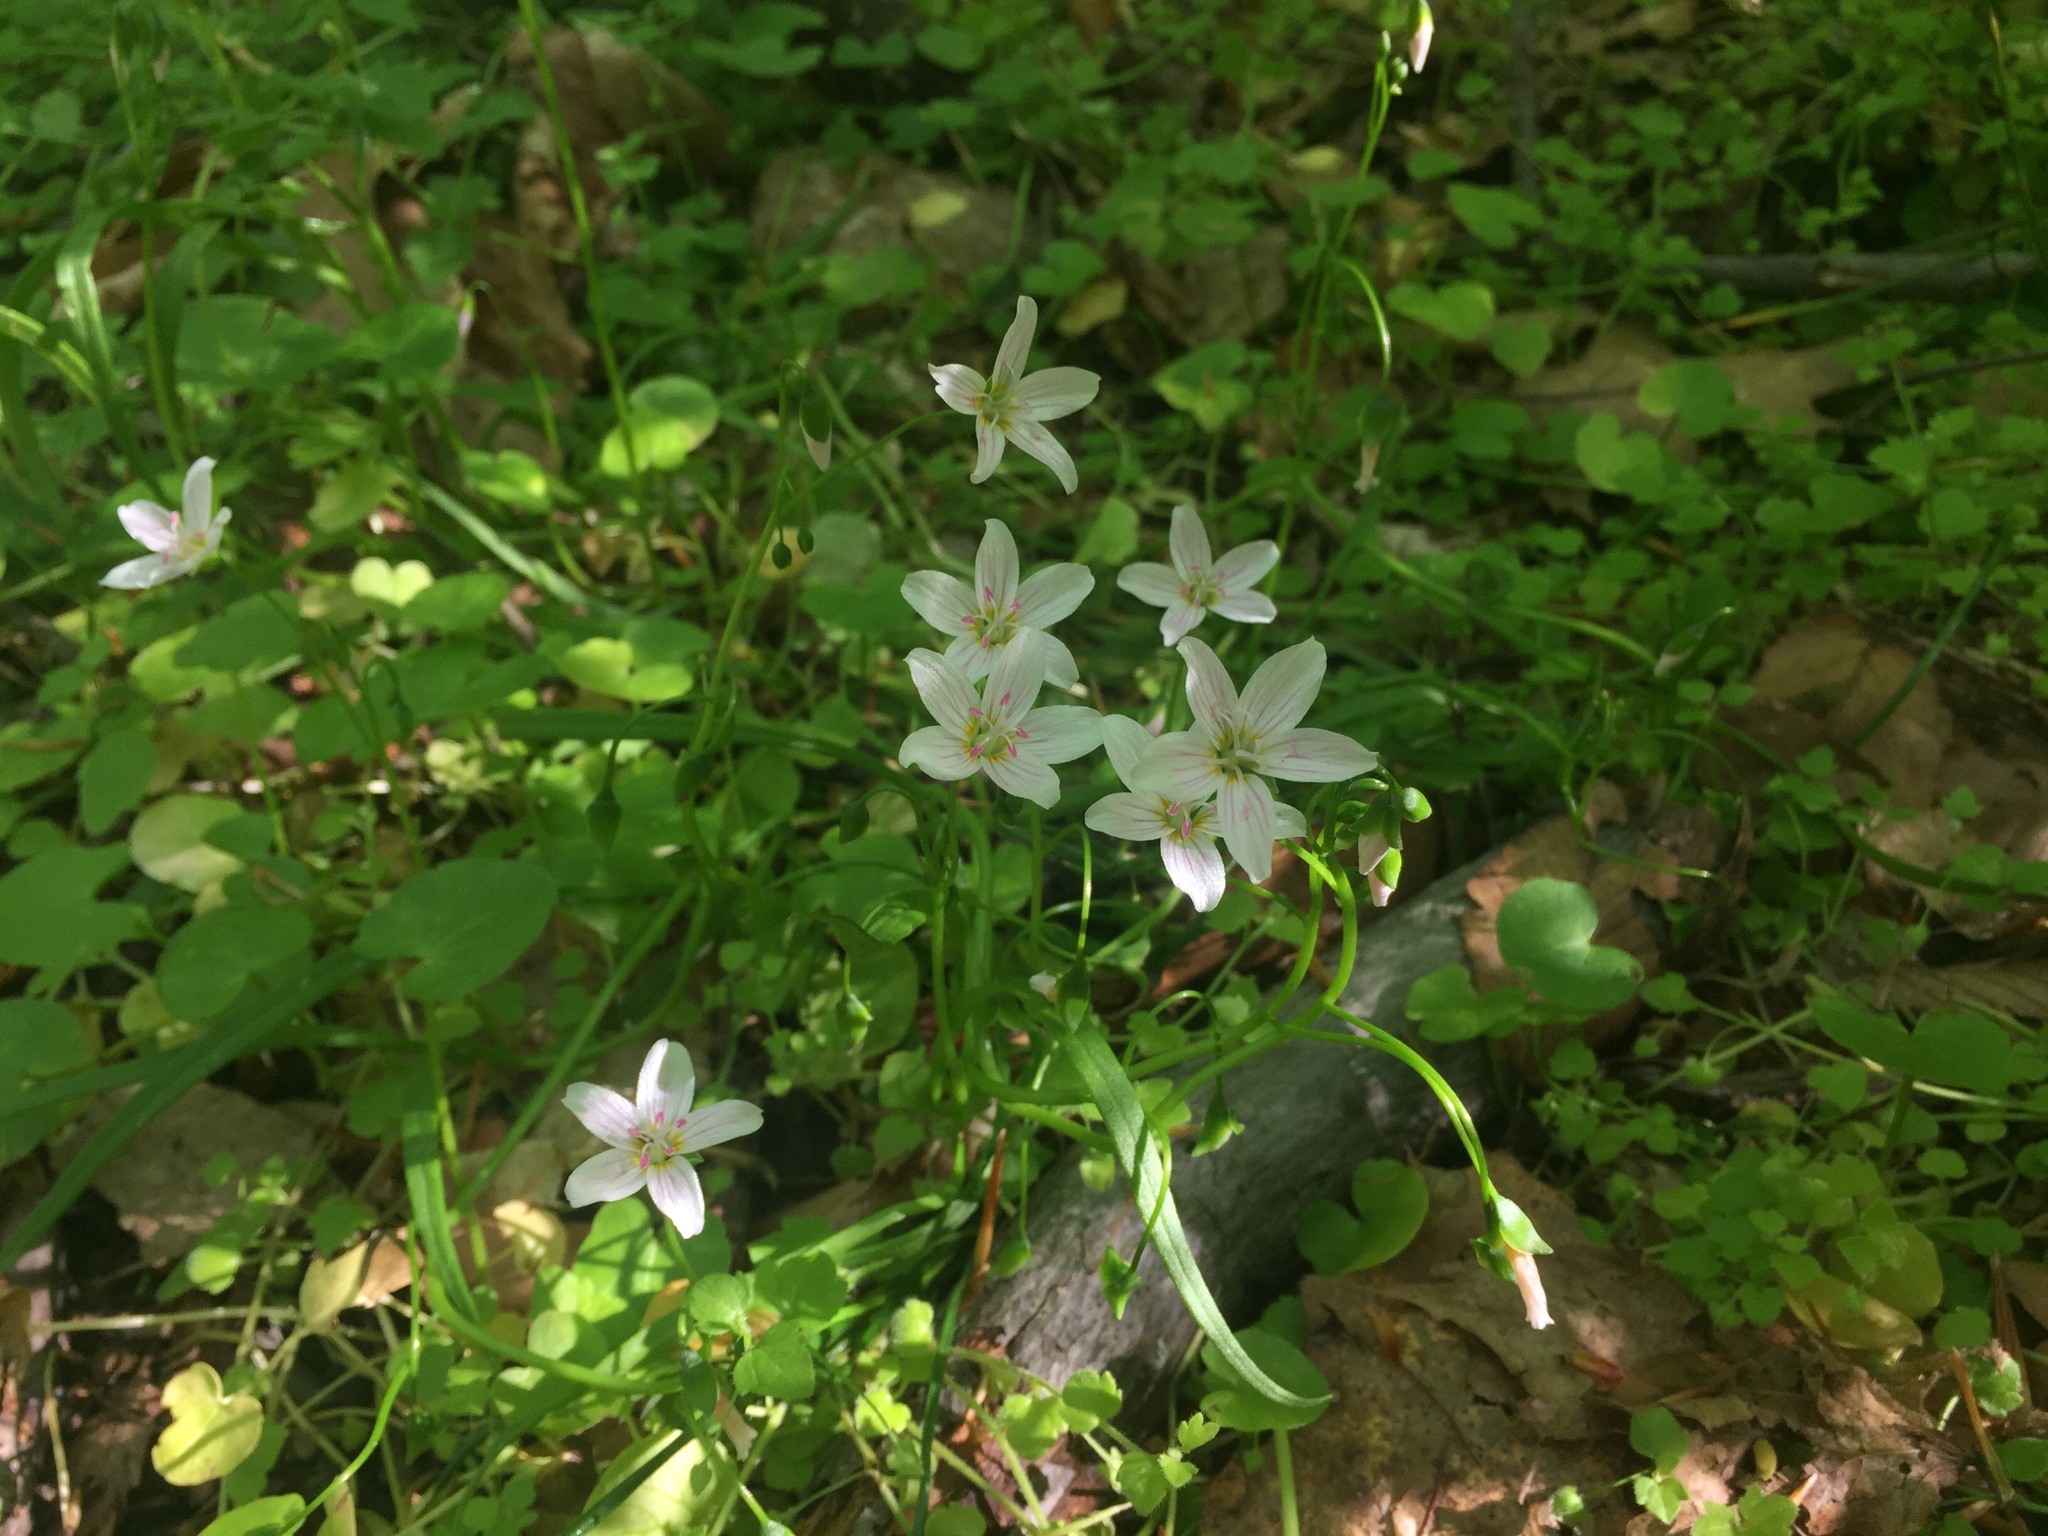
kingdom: Plantae
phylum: Tracheophyta
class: Magnoliopsida
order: Caryophyllales
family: Montiaceae
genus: Claytonia
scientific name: Claytonia virginica
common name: Virginia springbeauty
